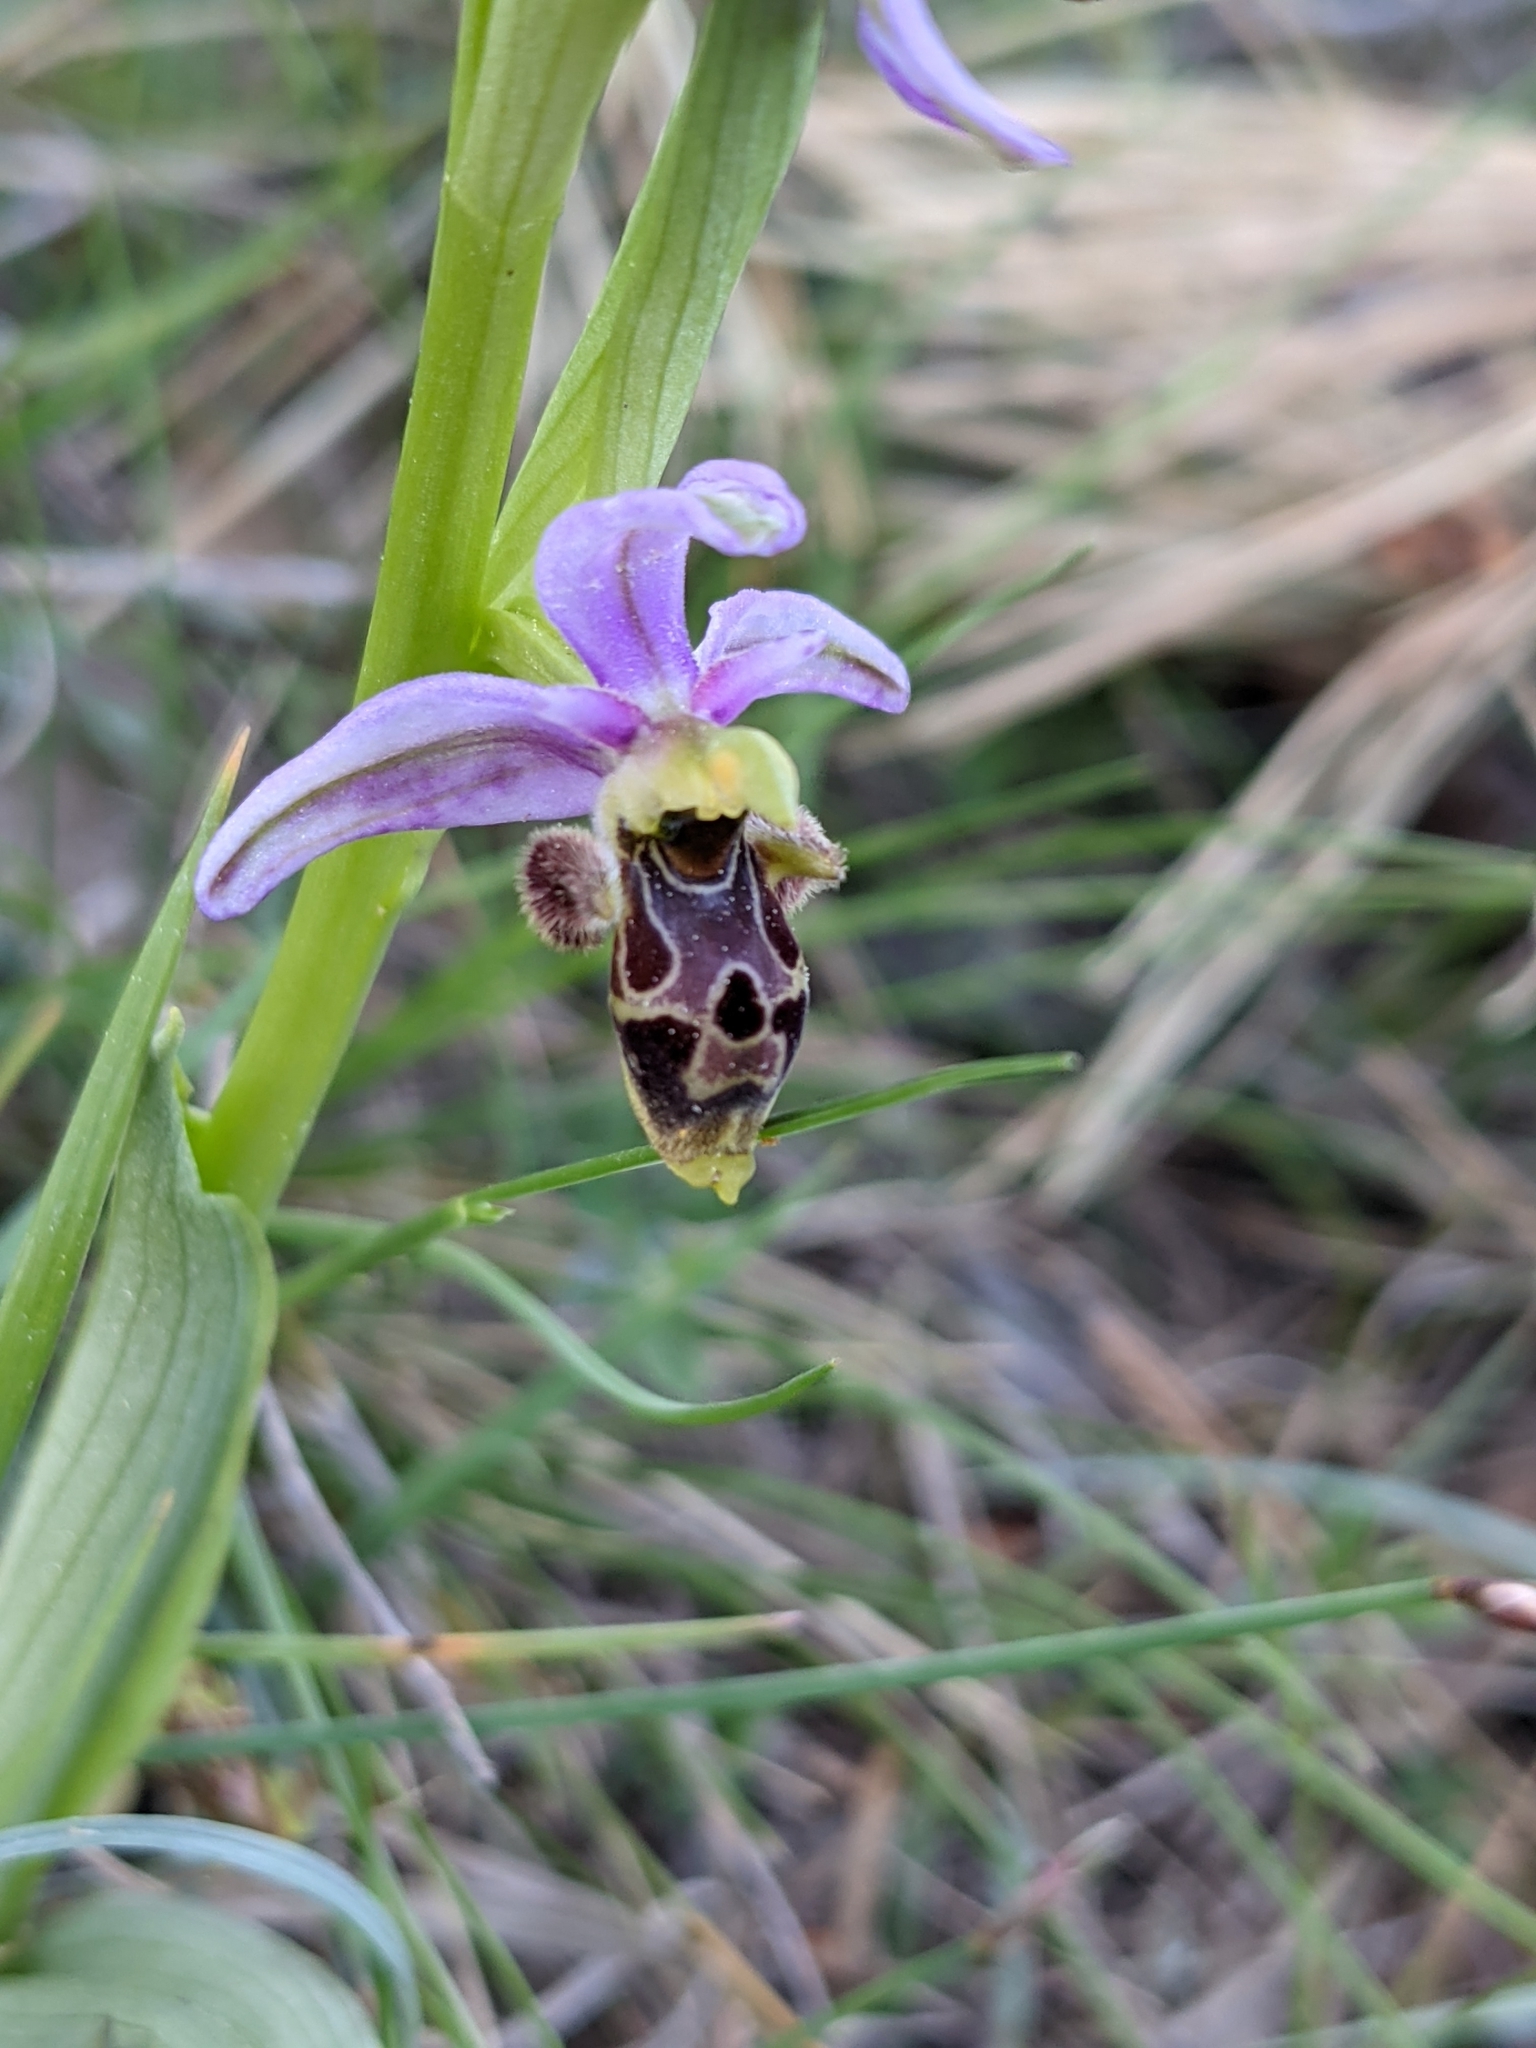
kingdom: Plantae
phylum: Tracheophyta
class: Liliopsida
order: Asparagales
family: Orchidaceae
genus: Ophrys
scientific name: Ophrys scolopax
